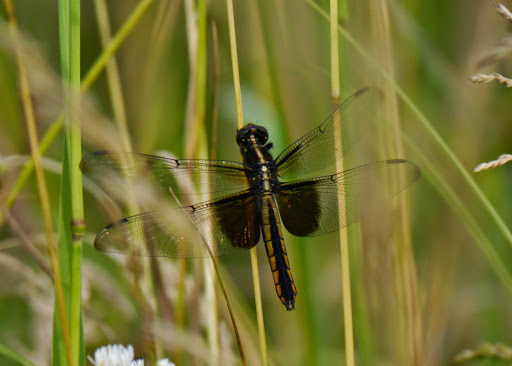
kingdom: Animalia
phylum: Arthropoda
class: Insecta
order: Odonata
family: Libellulidae
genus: Libellula
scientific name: Libellula luctuosa
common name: Widow skimmer
